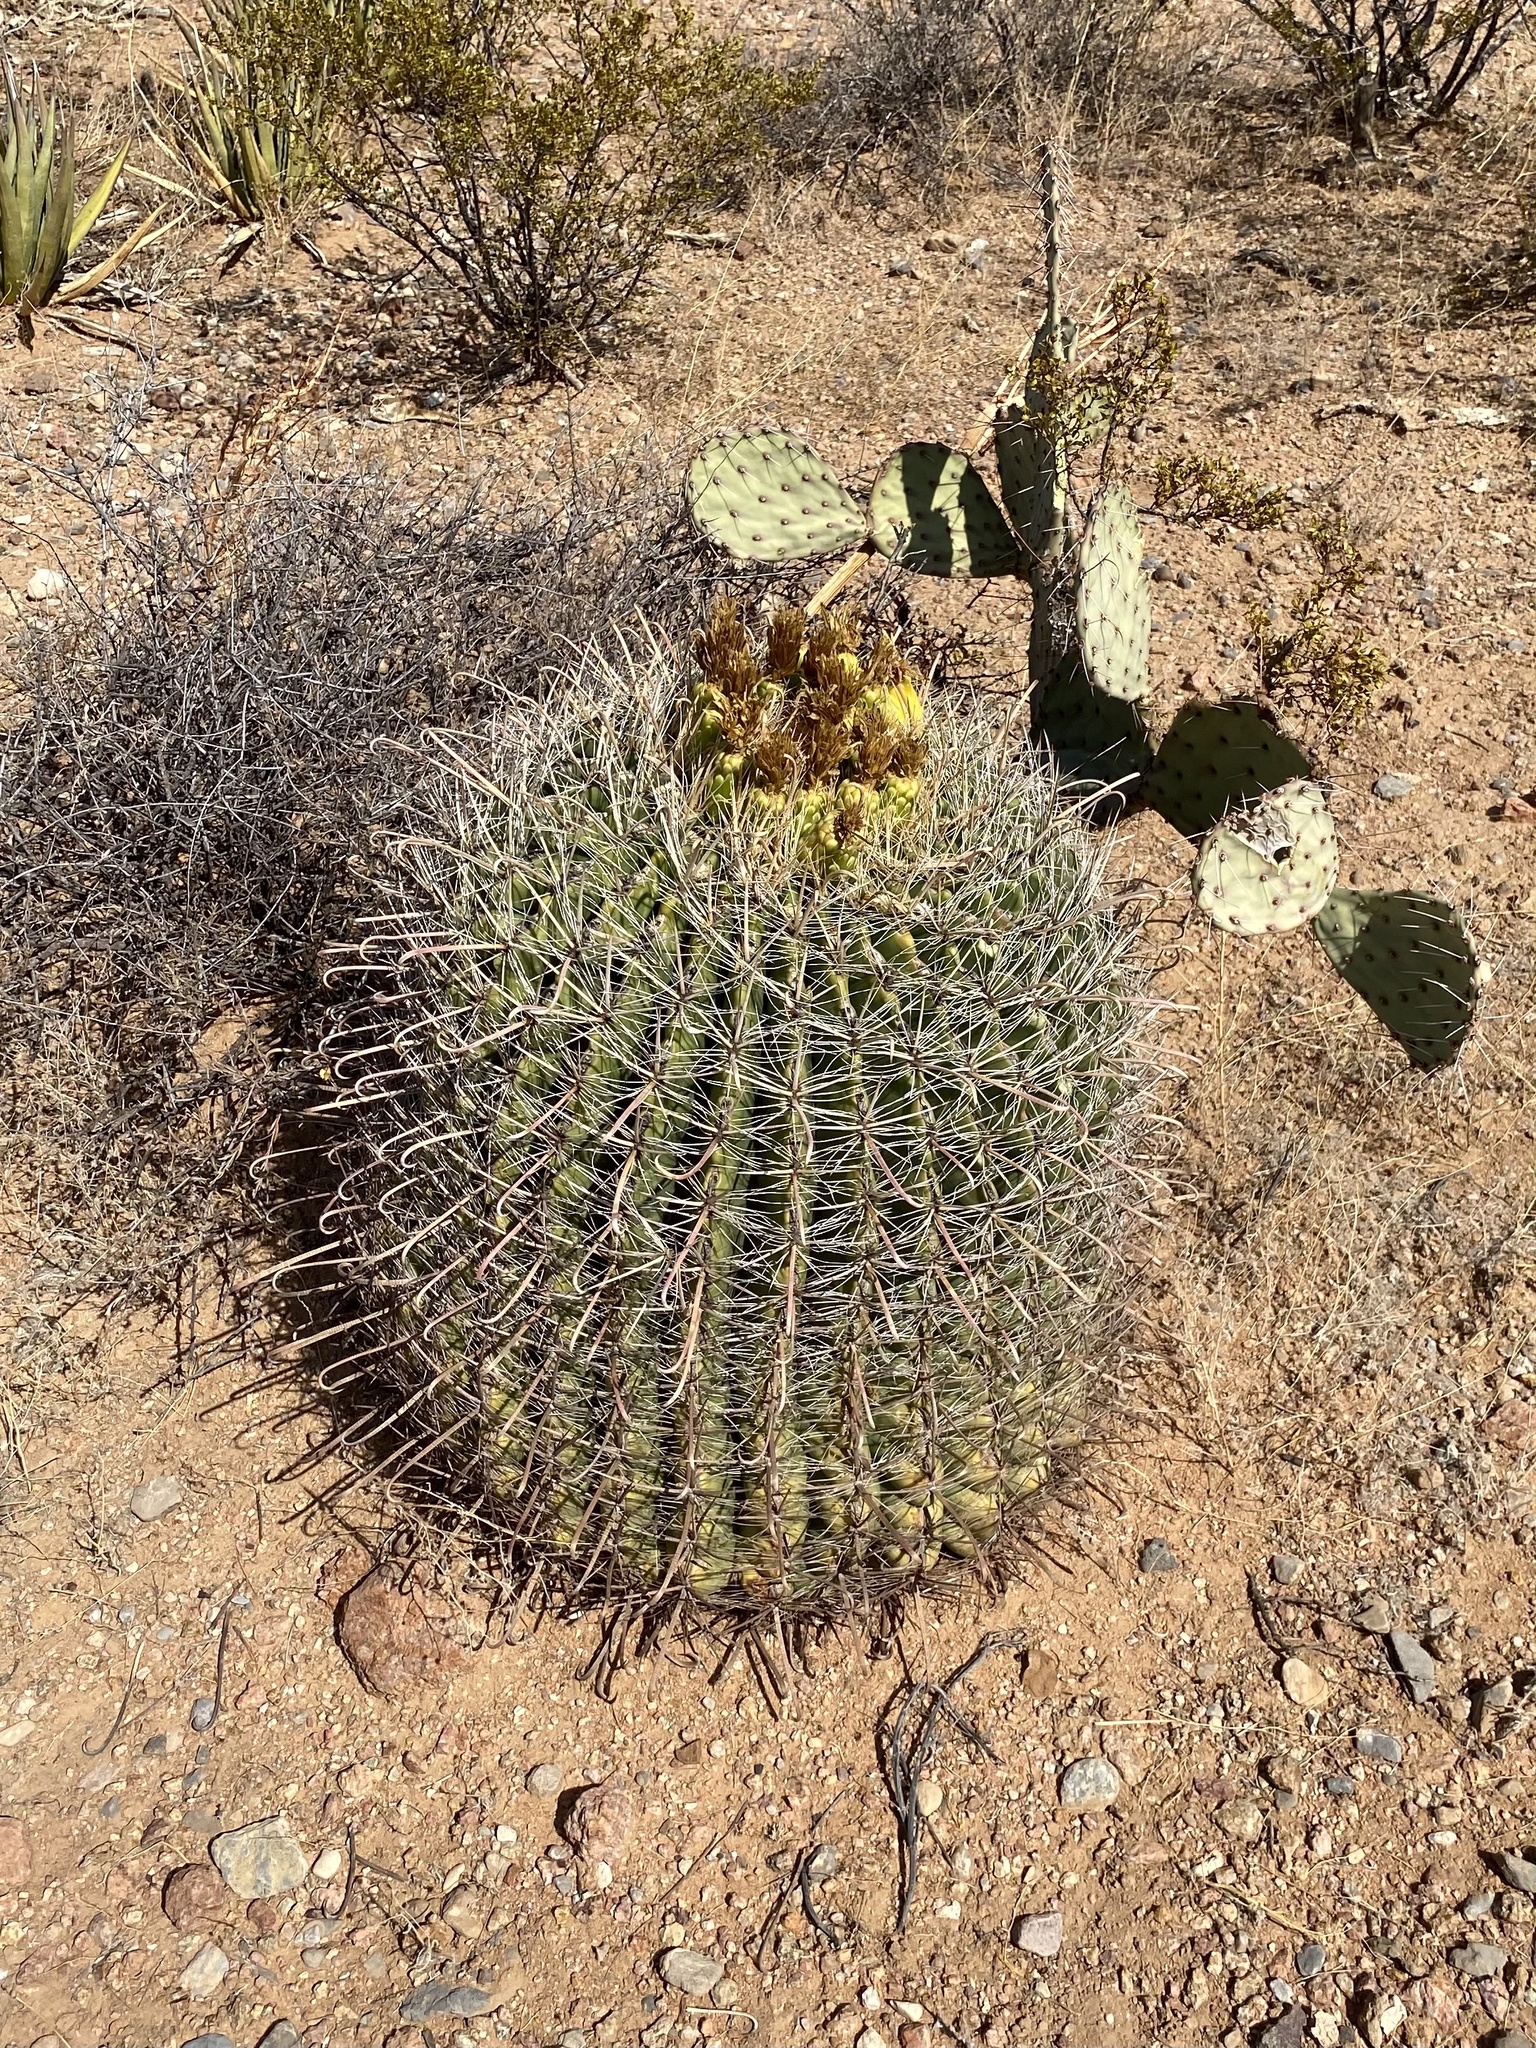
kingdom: Plantae
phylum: Tracheophyta
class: Magnoliopsida
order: Caryophyllales
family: Cactaceae
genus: Ferocactus
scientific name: Ferocactus wislizeni
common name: Candy barrel cactus
